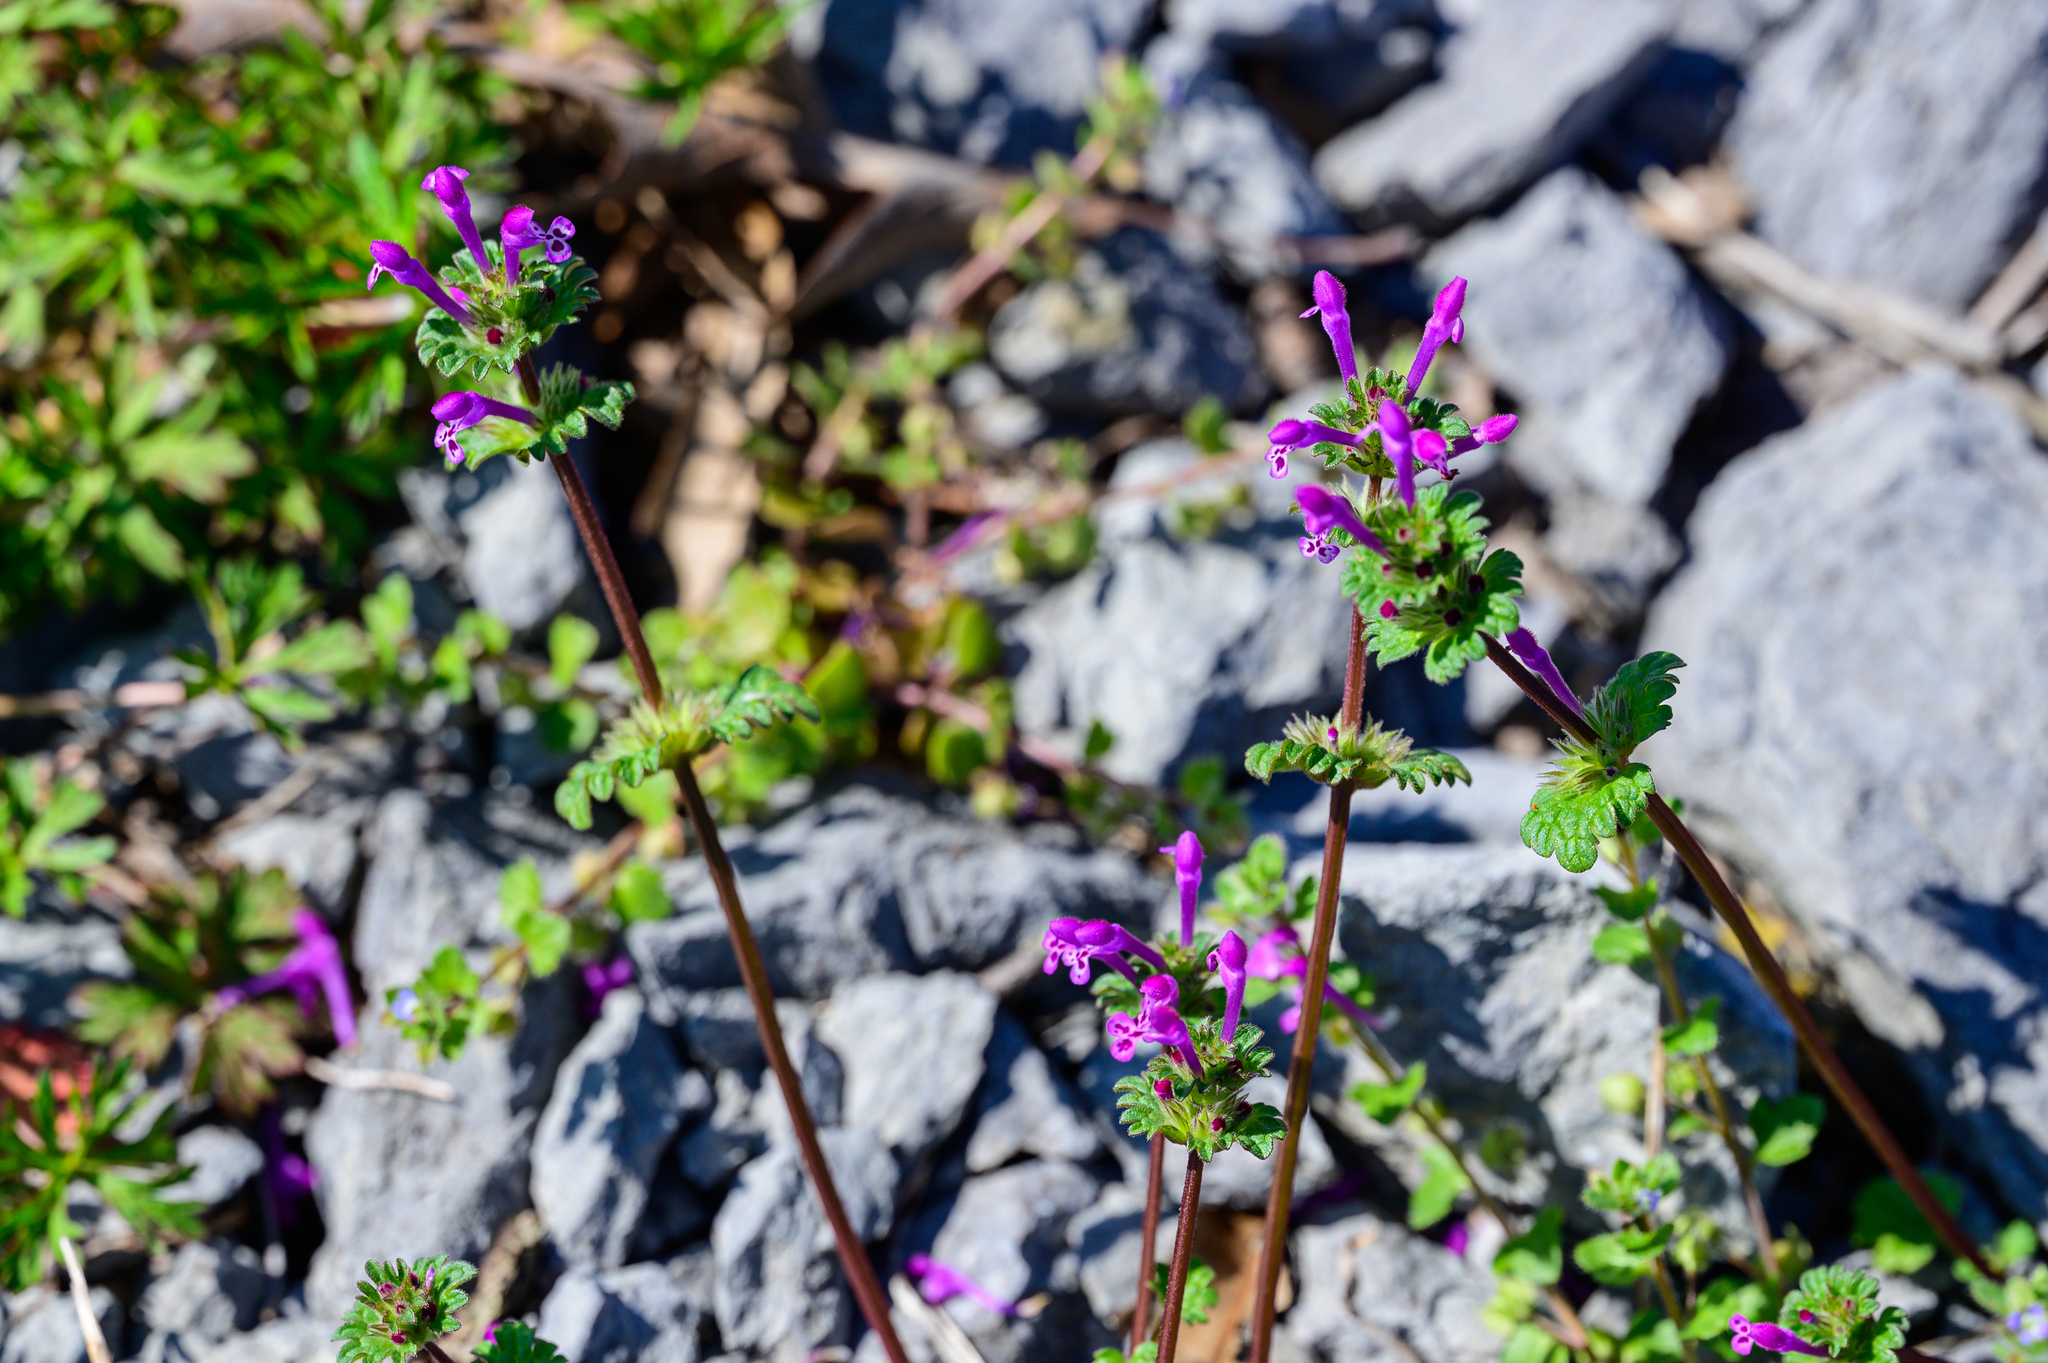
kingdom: Plantae
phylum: Tracheophyta
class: Magnoliopsida
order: Lamiales
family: Lamiaceae
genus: Lamium
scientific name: Lamium amplexicaule
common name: Henbit dead-nettle
